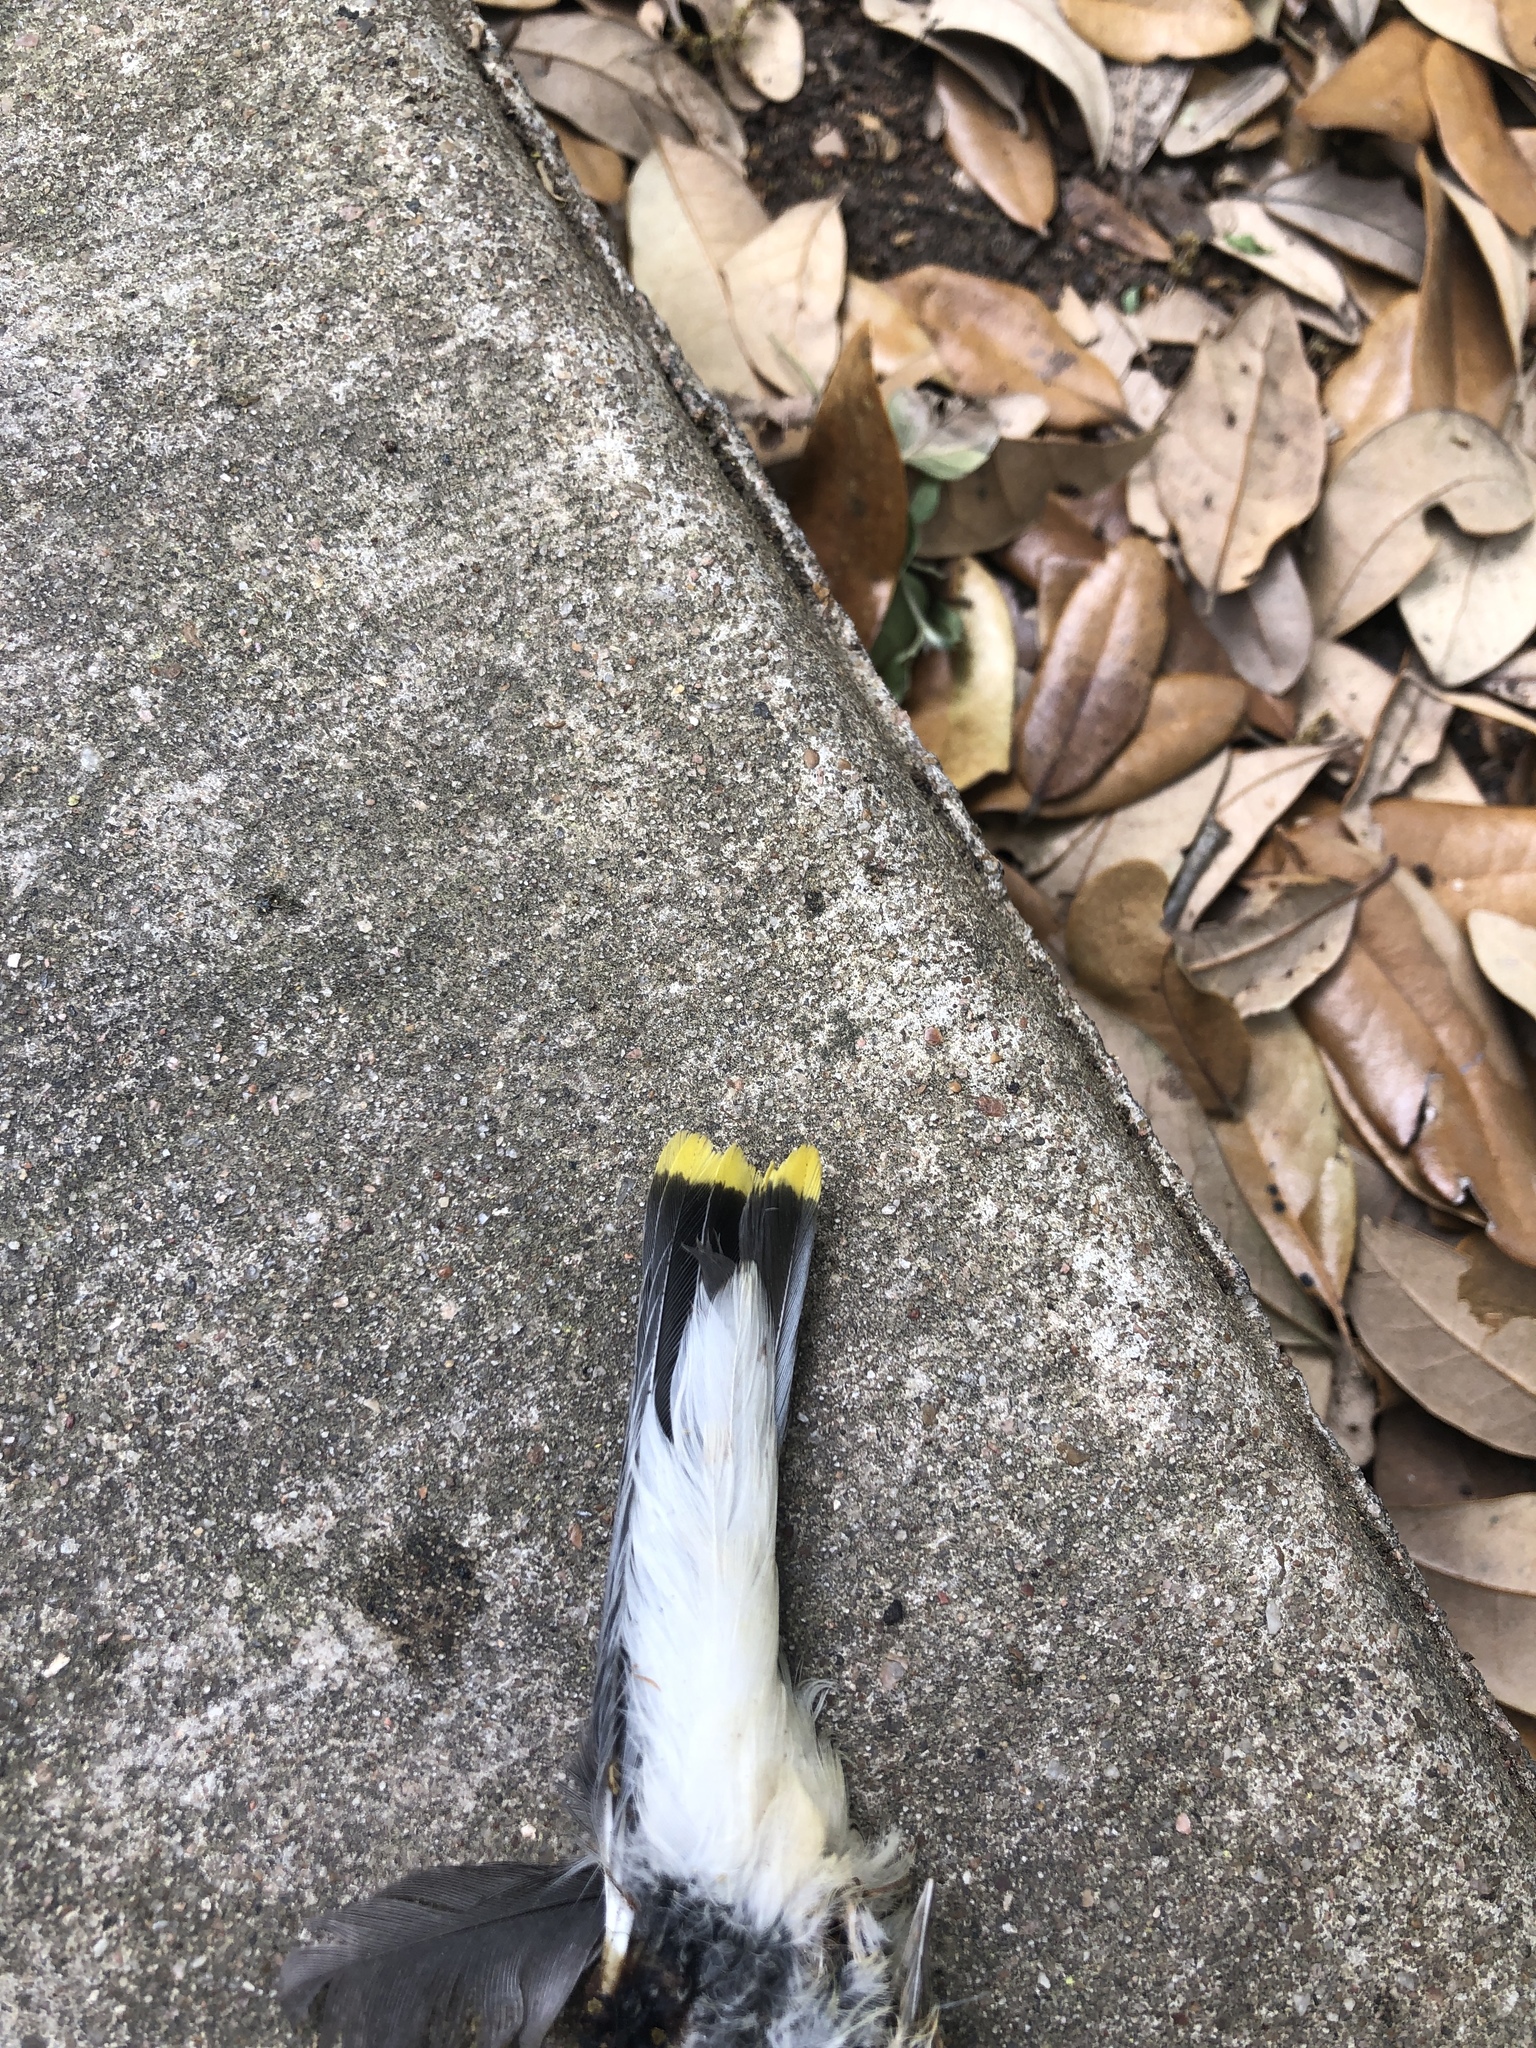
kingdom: Animalia
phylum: Chordata
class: Aves
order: Passeriformes
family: Bombycillidae
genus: Bombycilla
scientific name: Bombycilla cedrorum
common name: Cedar waxwing
